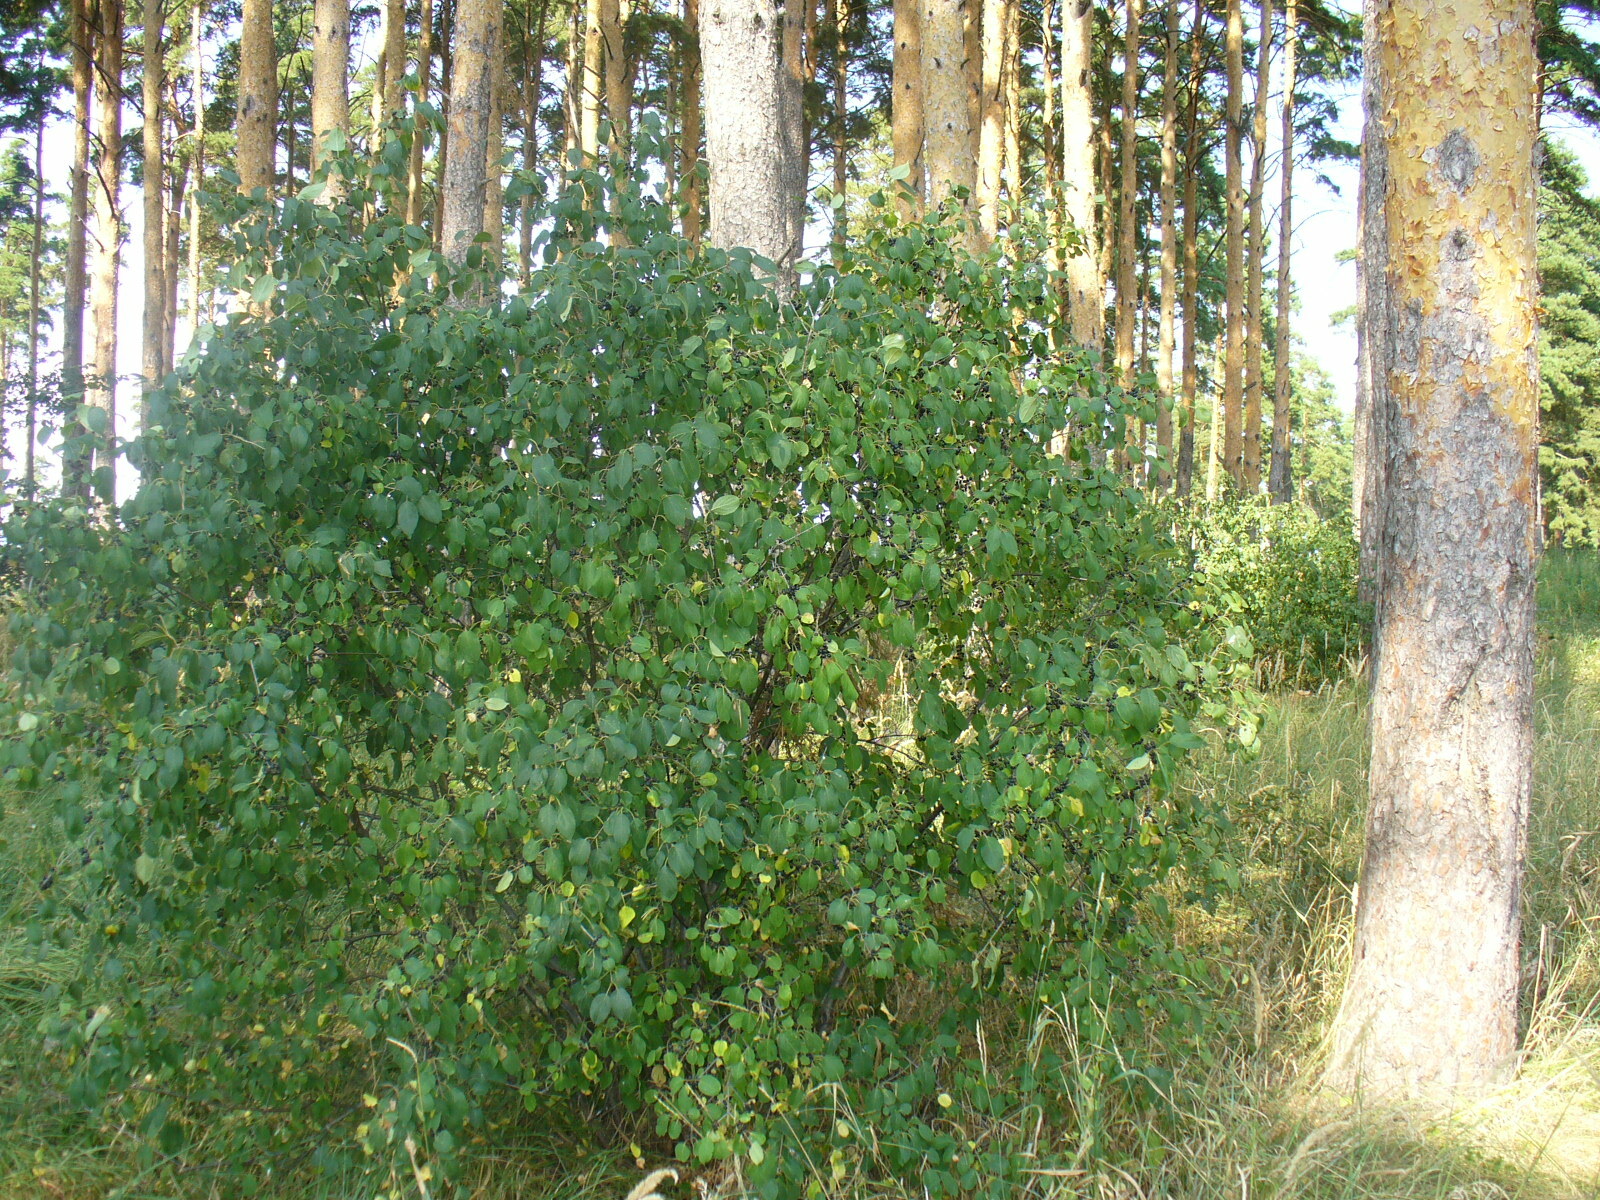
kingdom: Plantae
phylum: Tracheophyta
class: Magnoliopsida
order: Rosales
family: Rhamnaceae
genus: Rhamnus
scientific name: Rhamnus cathartica
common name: Common buckthorn
